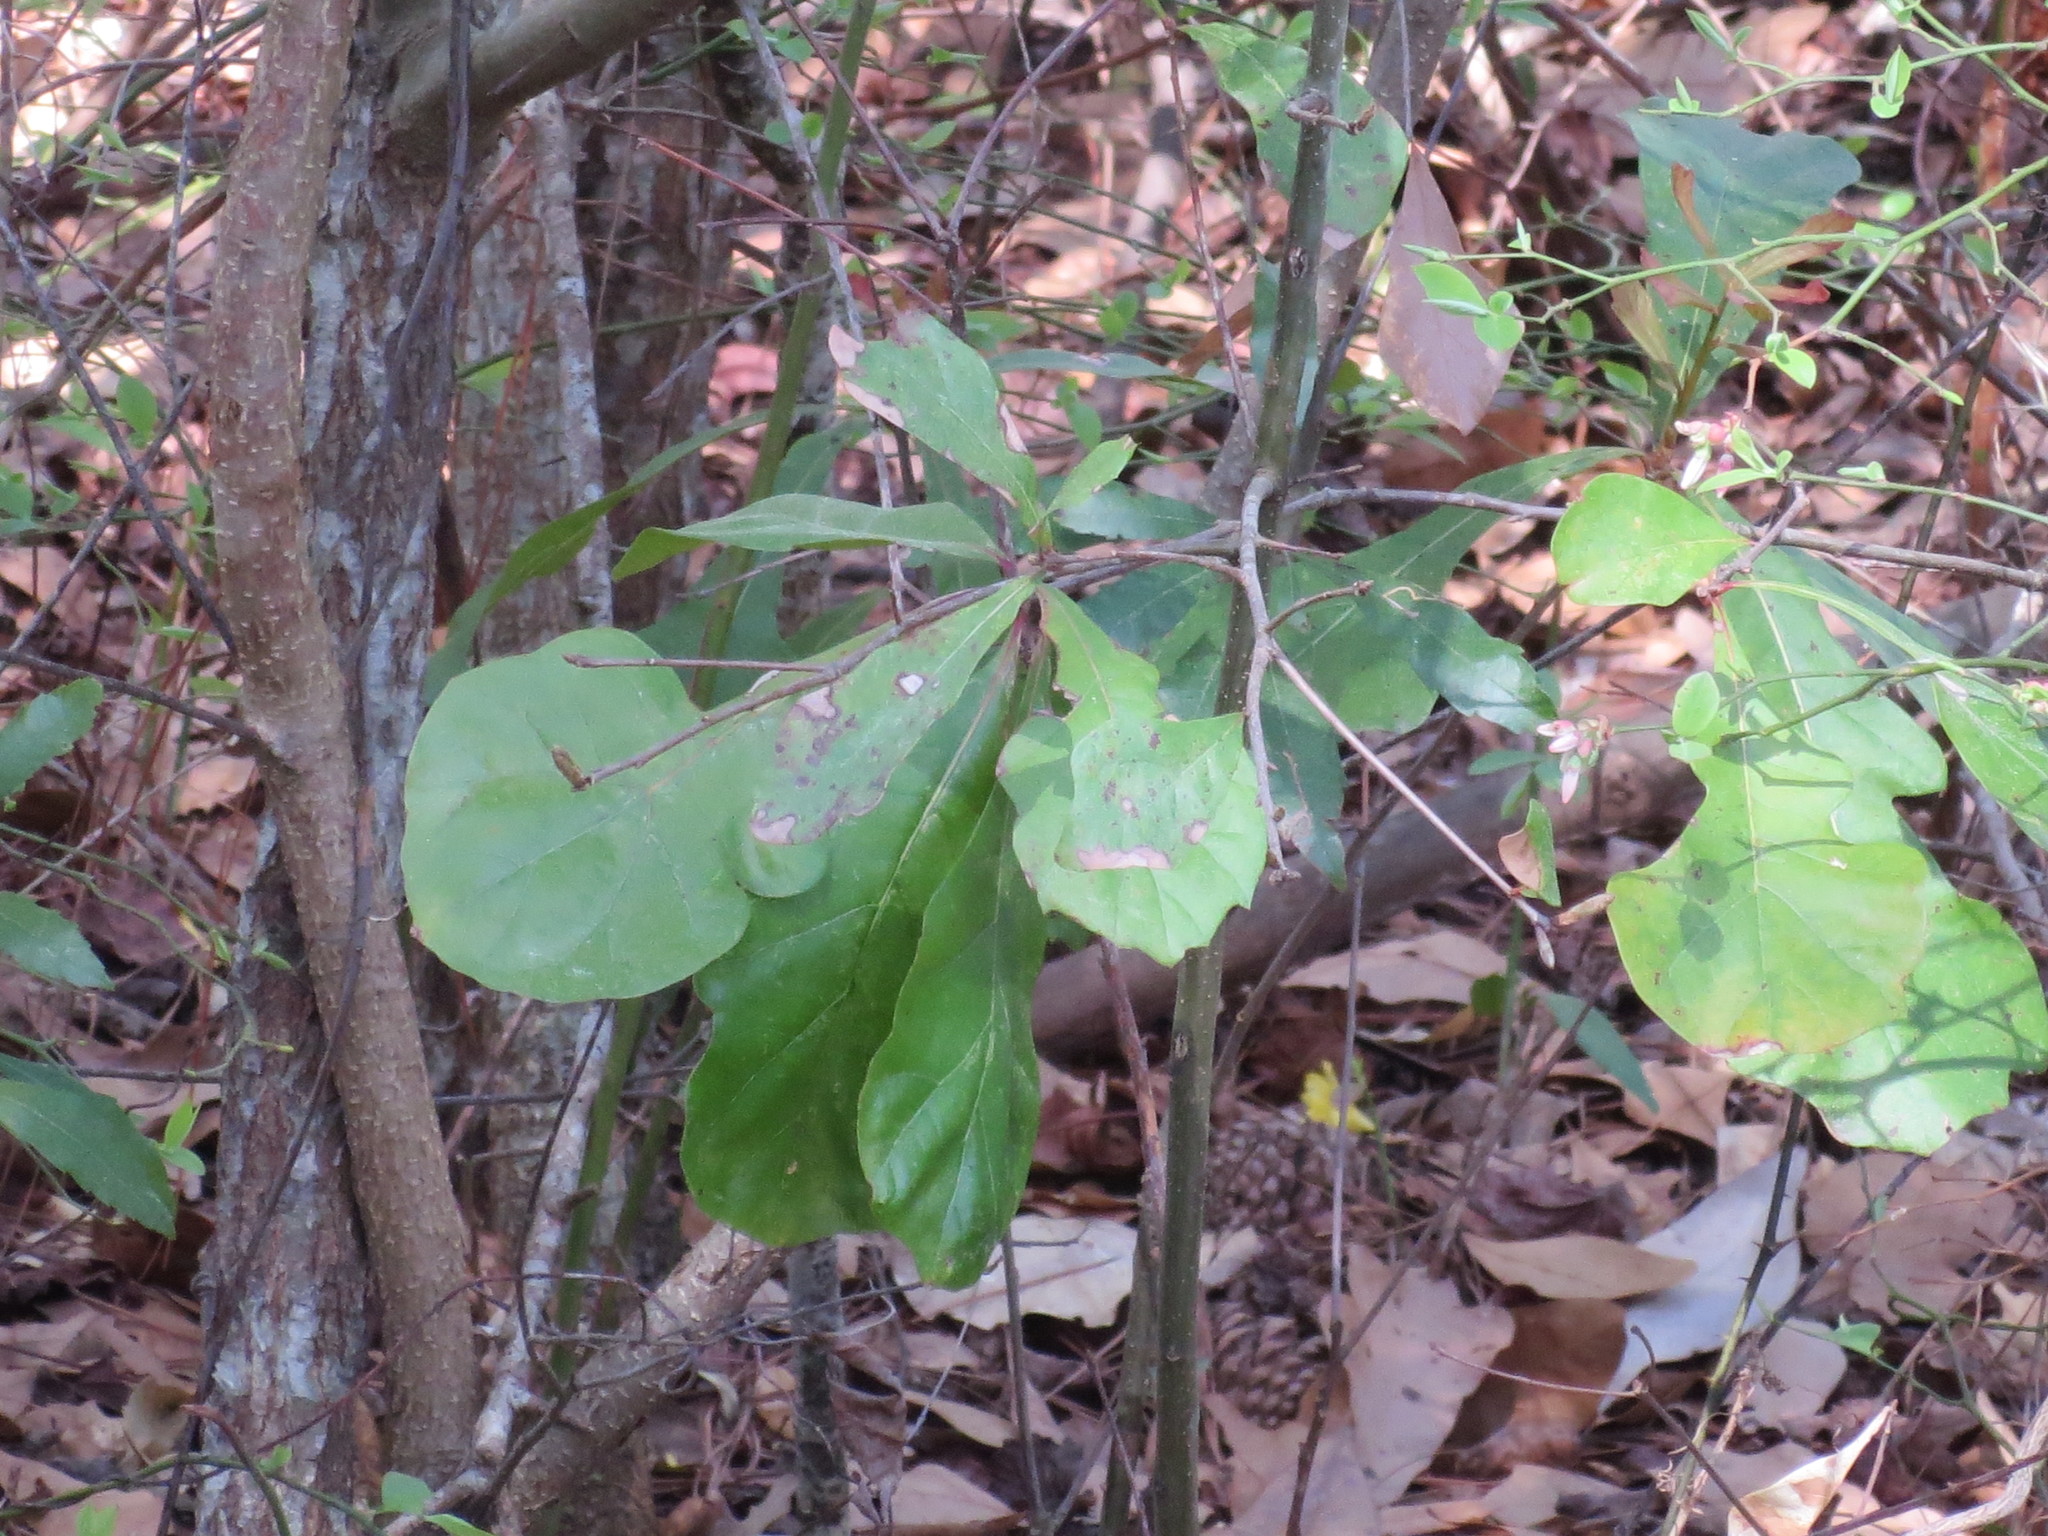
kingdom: Plantae
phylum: Tracheophyta
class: Magnoliopsida
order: Fagales
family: Fagaceae
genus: Quercus
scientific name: Quercus nigra
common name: Water oak
